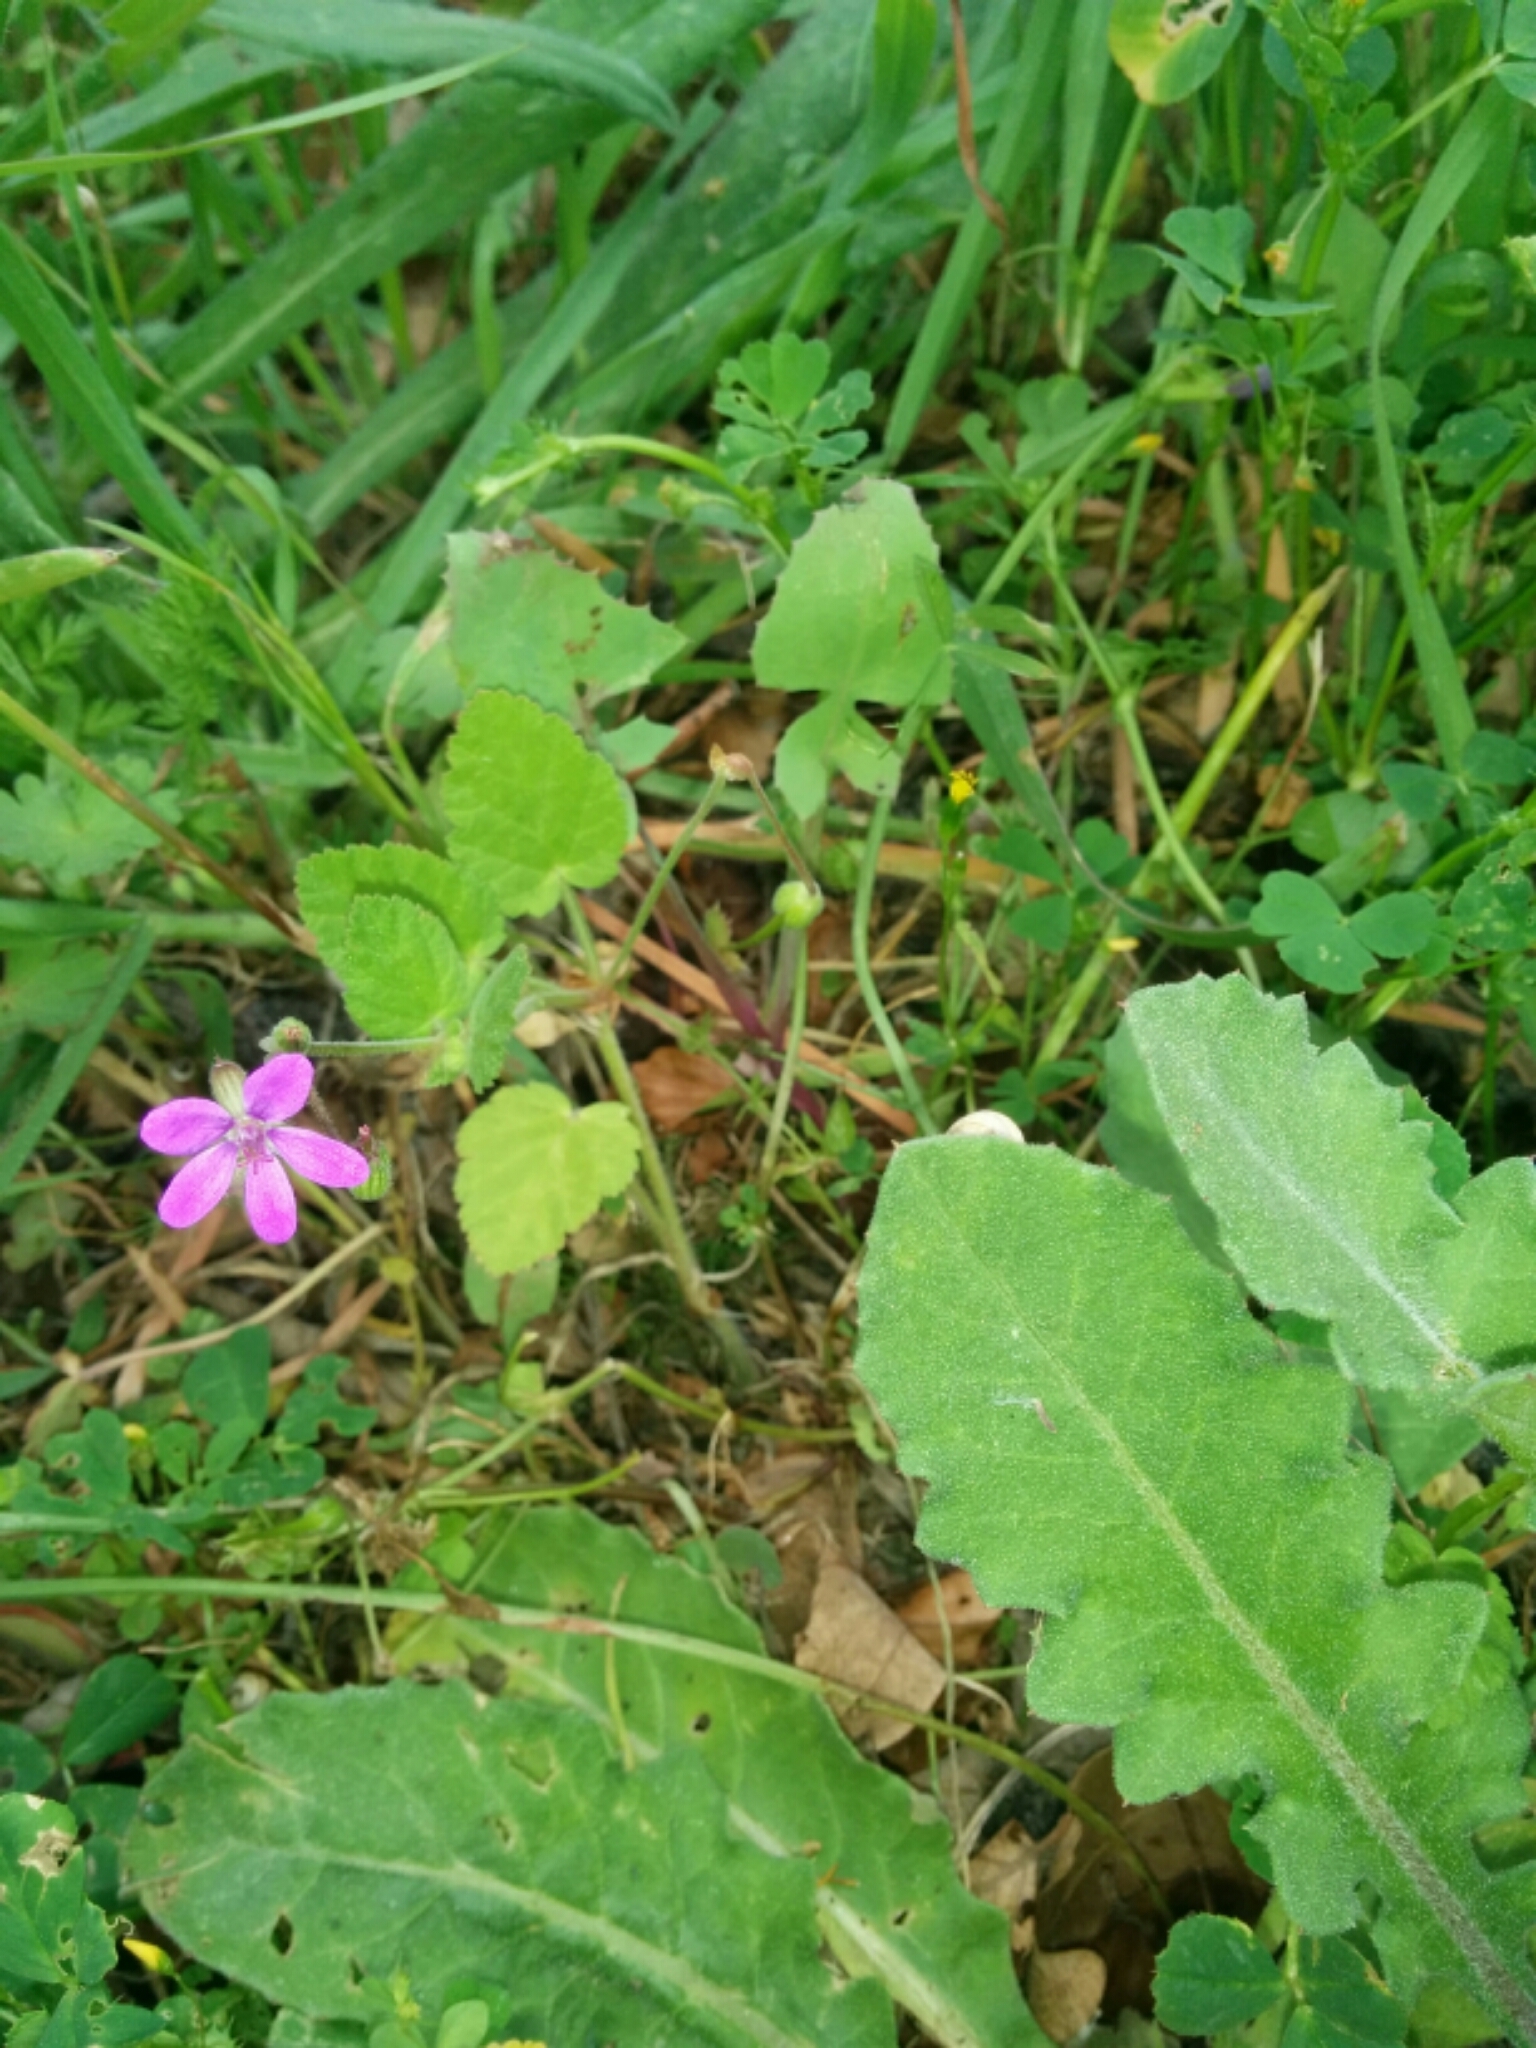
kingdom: Plantae
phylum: Tracheophyta
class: Magnoliopsida
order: Geraniales
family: Geraniaceae
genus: Erodium
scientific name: Erodium malacoides
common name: Soft stork's-bill
